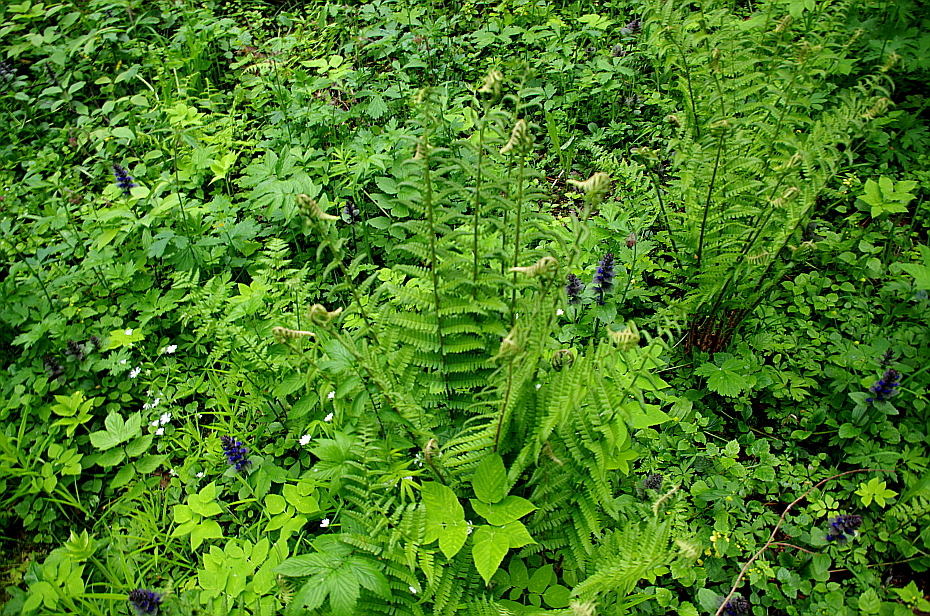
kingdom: Plantae
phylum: Tracheophyta
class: Polypodiopsida
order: Polypodiales
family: Dryopteridaceae
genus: Dryopteris
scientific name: Dryopteris filix-mas
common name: Male fern
